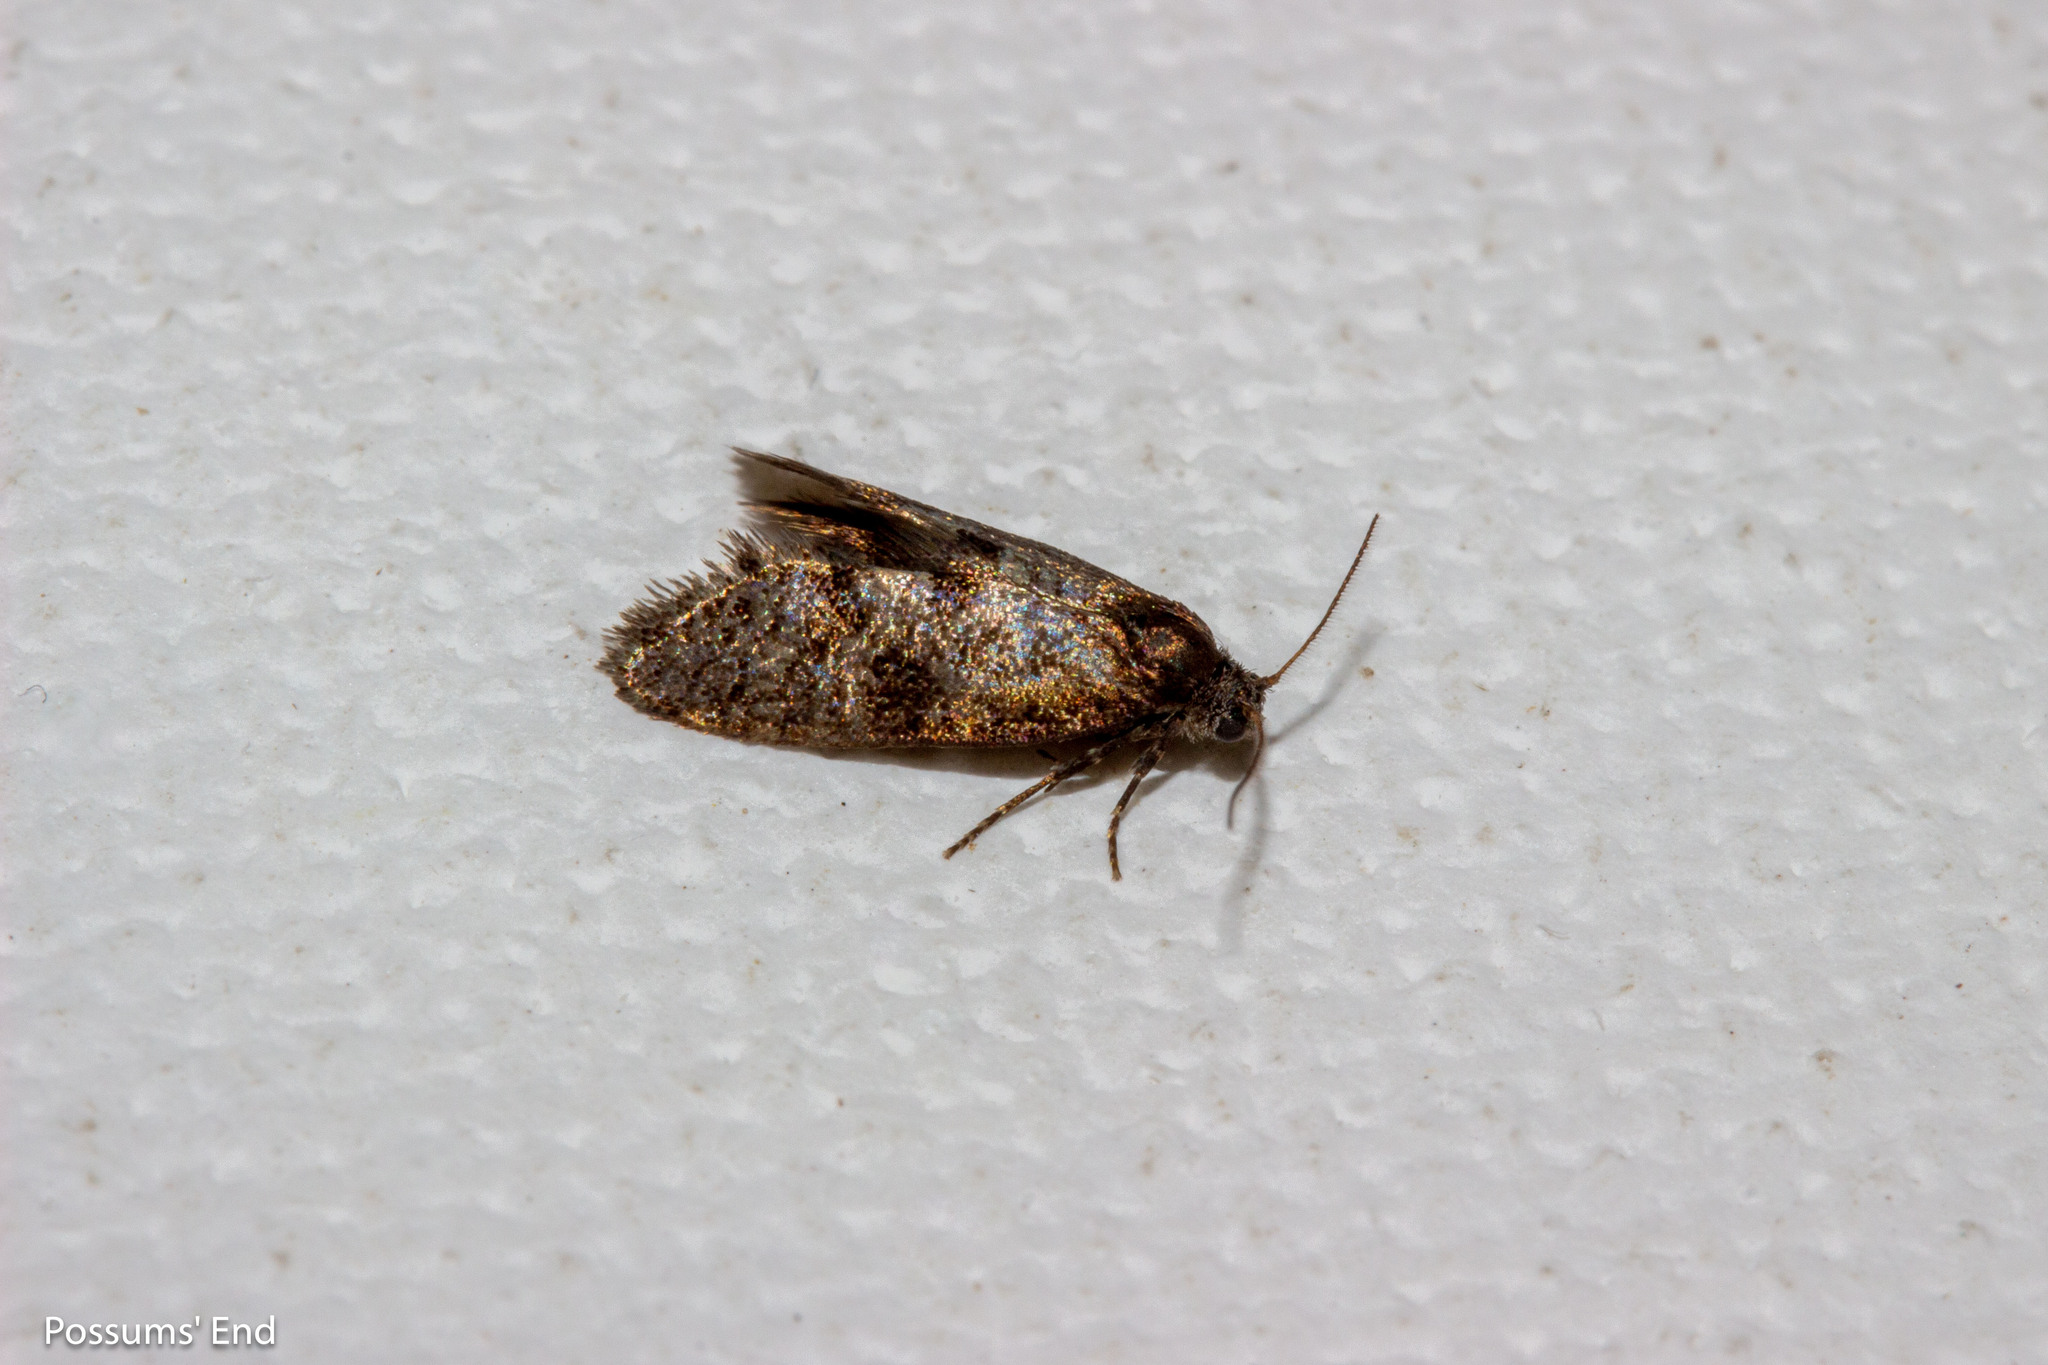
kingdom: Animalia
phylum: Arthropoda
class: Insecta
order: Lepidoptera
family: Psychidae
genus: Mallobathra
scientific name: Mallobathra perisseuta
